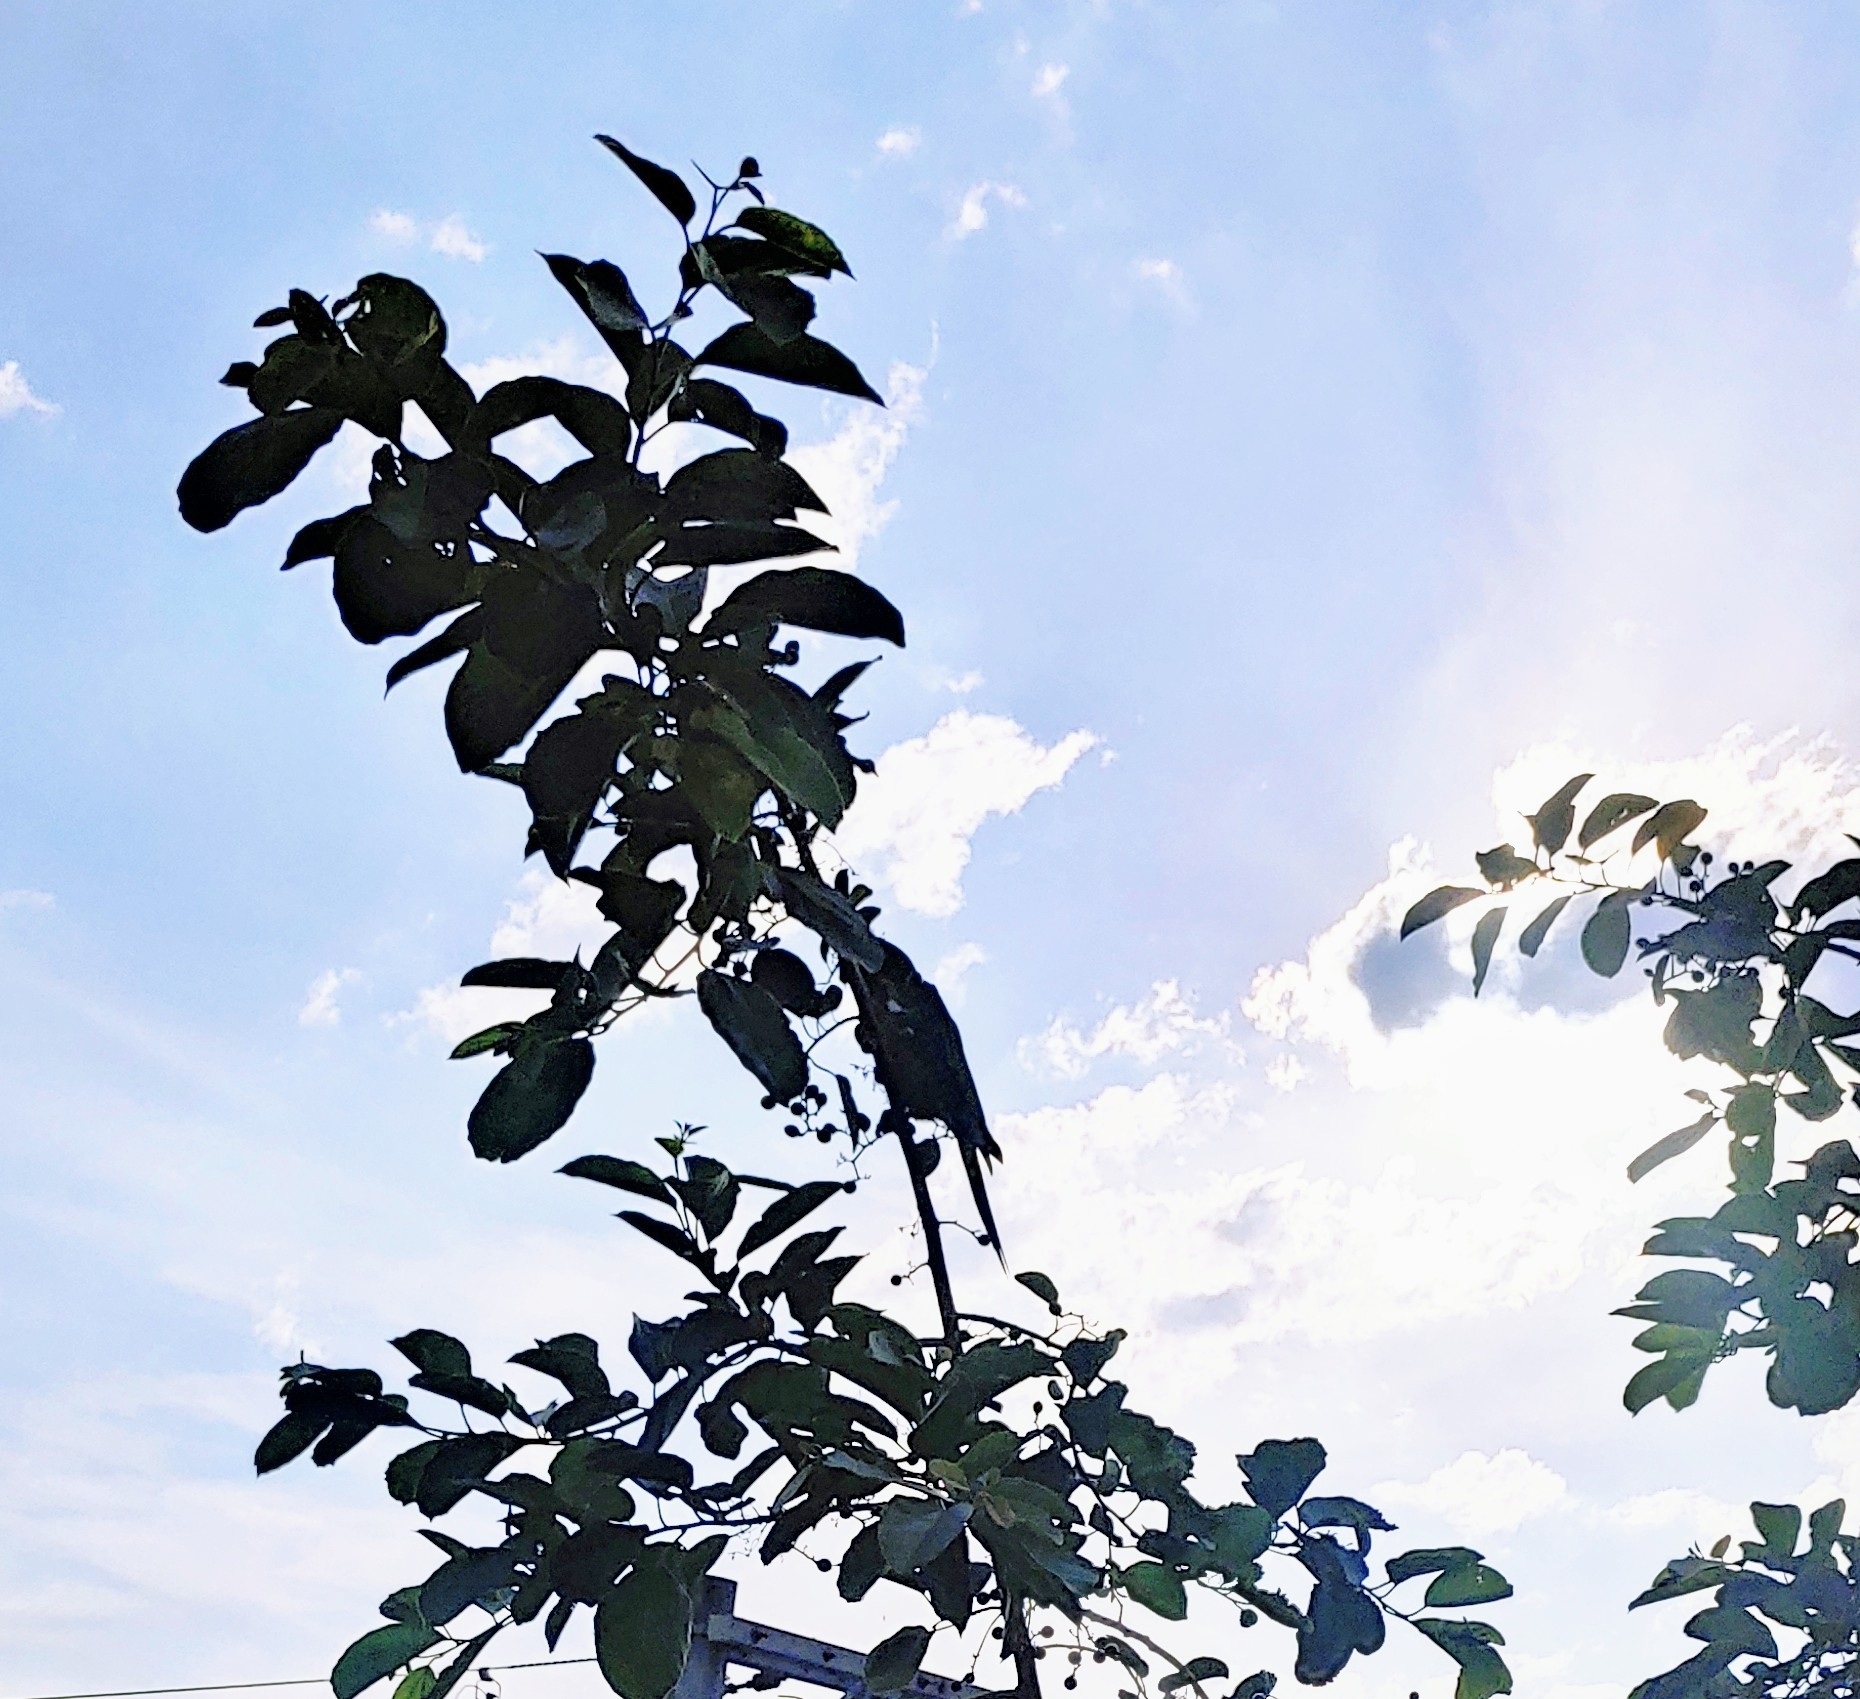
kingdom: Animalia
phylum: Chordata
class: Aves
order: Psittaciformes
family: Psittacidae
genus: Diopsittaca
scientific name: Diopsittaca nobilis
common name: Red-shouldered macaw
